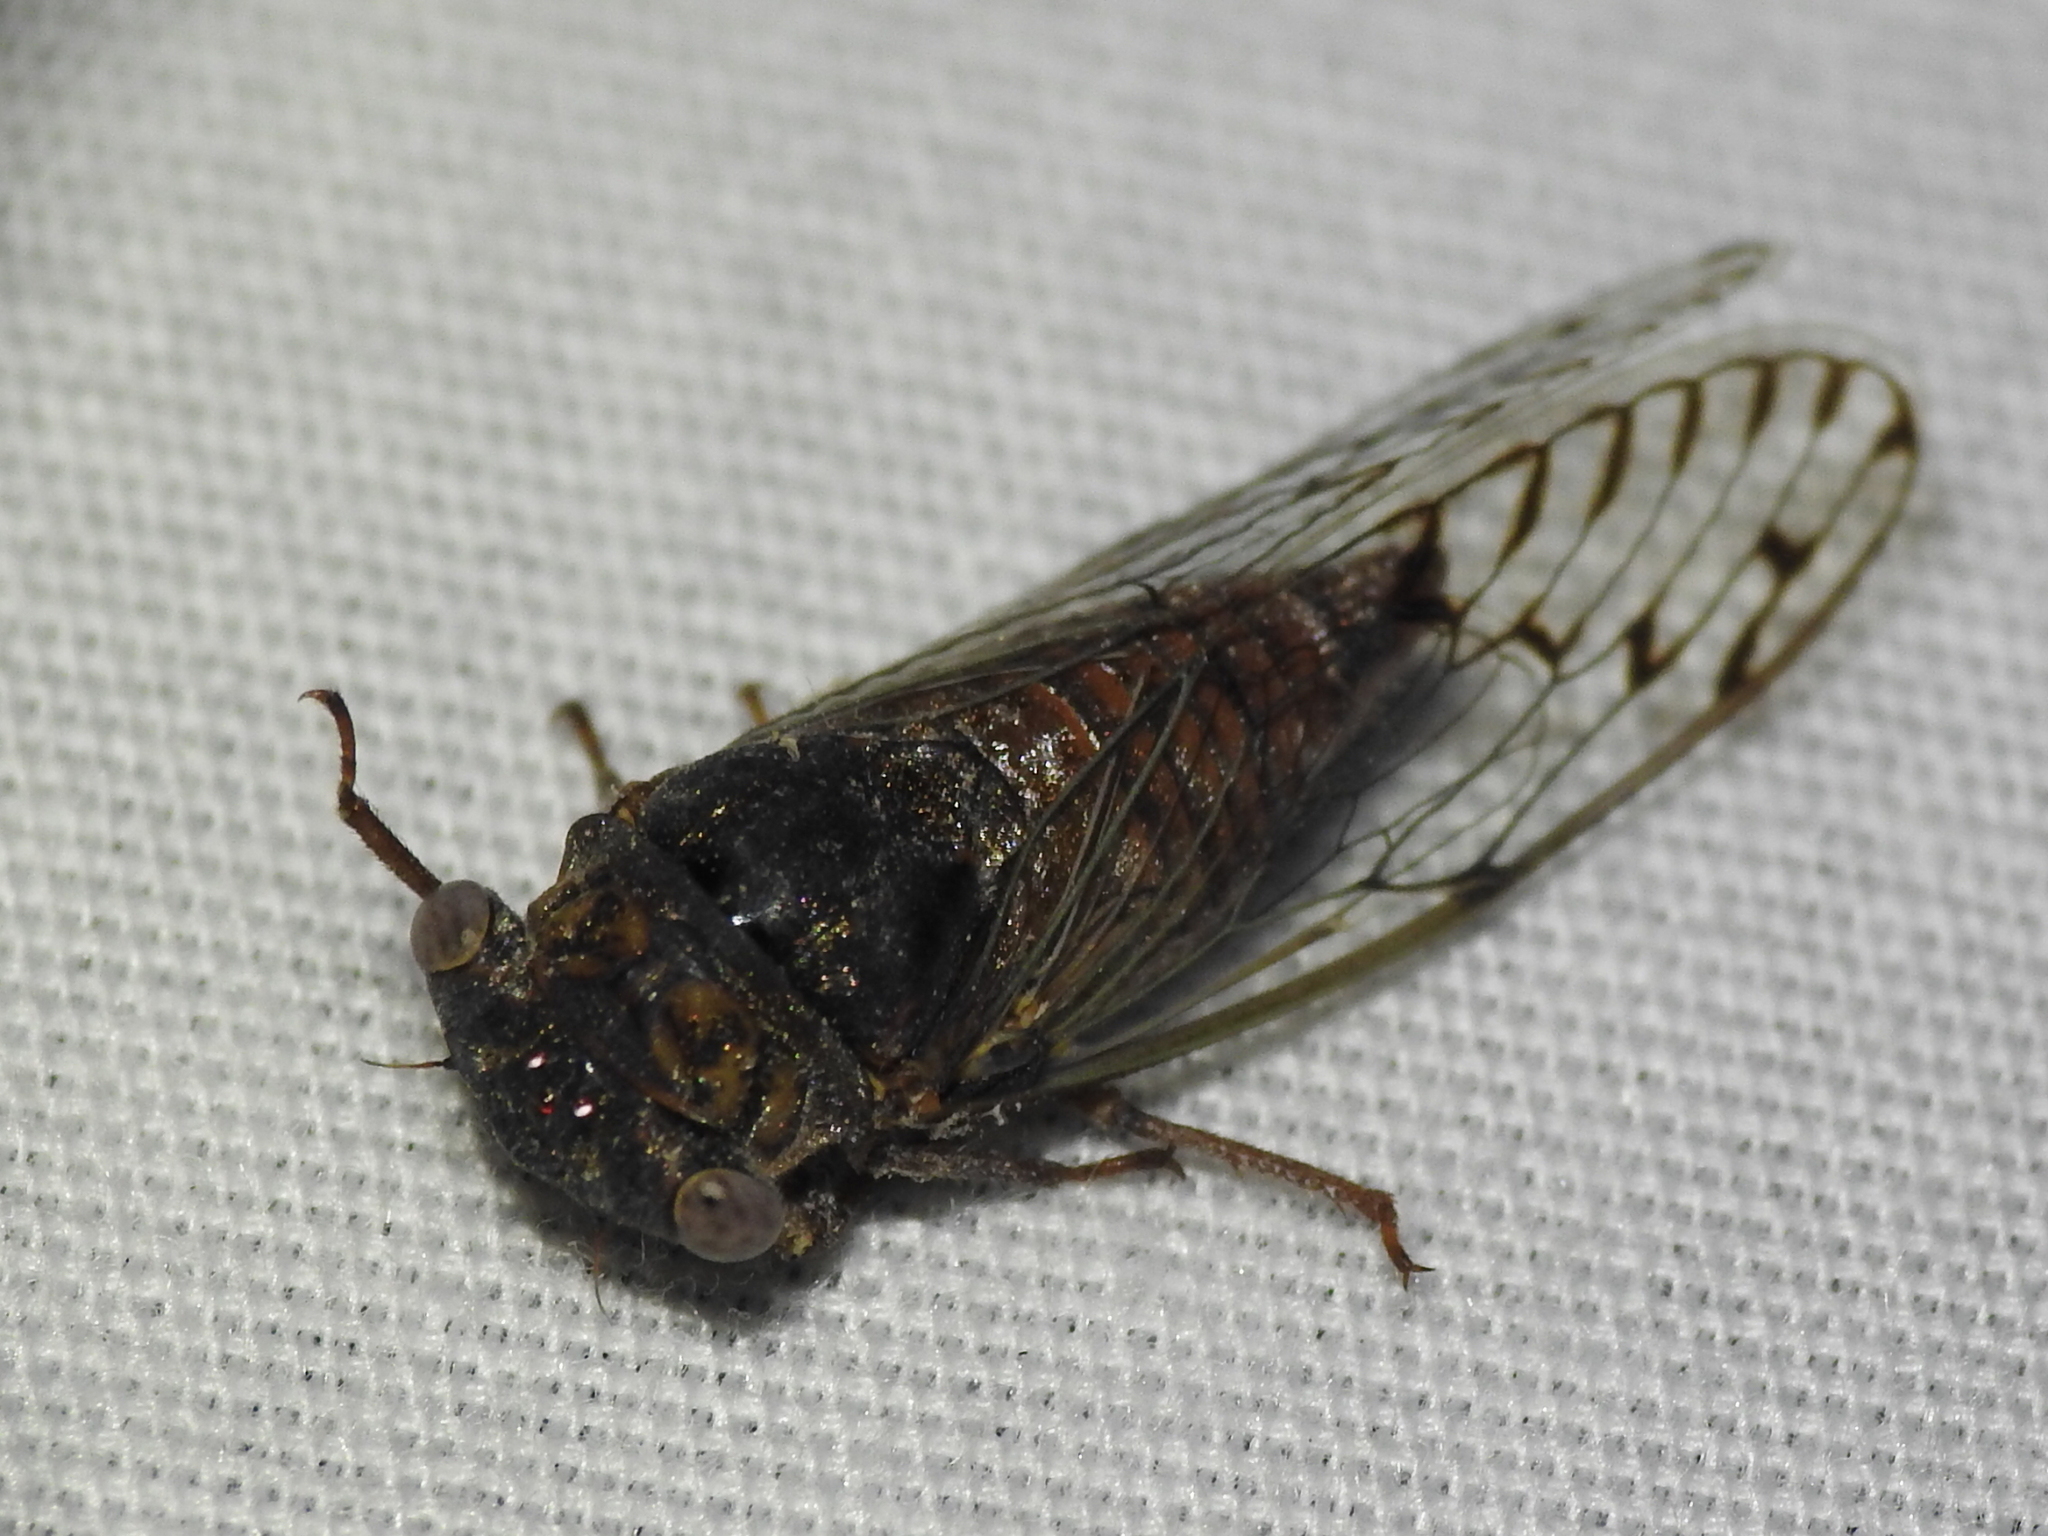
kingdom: Animalia
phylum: Arthropoda
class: Insecta
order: Hemiptera
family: Cicadidae
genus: Pacarina
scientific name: Pacarina puella
